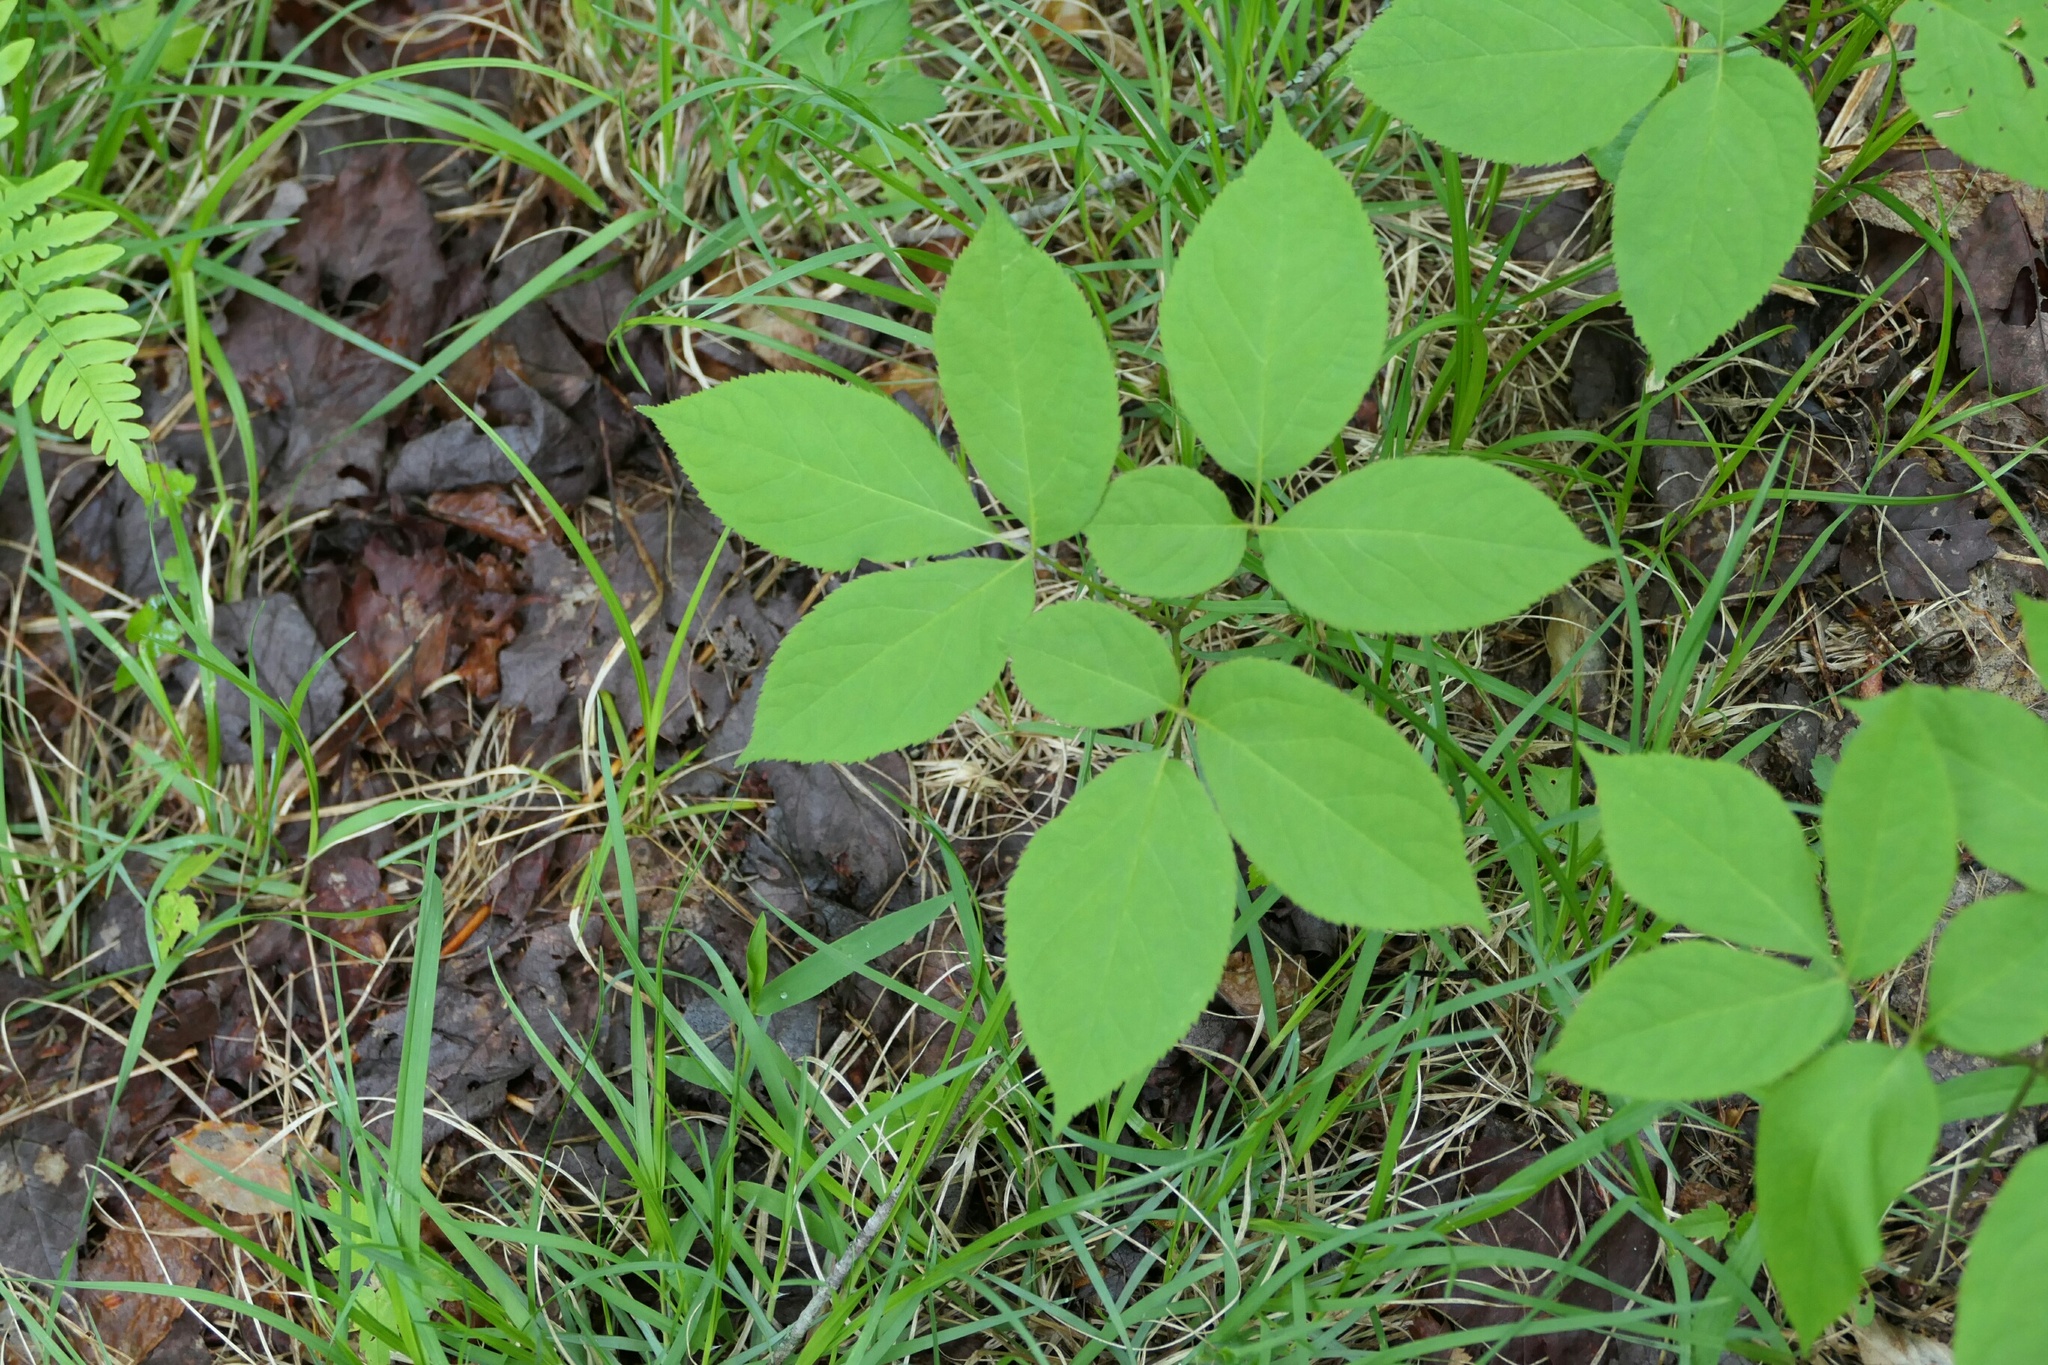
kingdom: Plantae
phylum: Tracheophyta
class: Magnoliopsida
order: Apiales
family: Araliaceae
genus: Aralia
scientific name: Aralia nudicaulis
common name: Wild sarsaparilla
